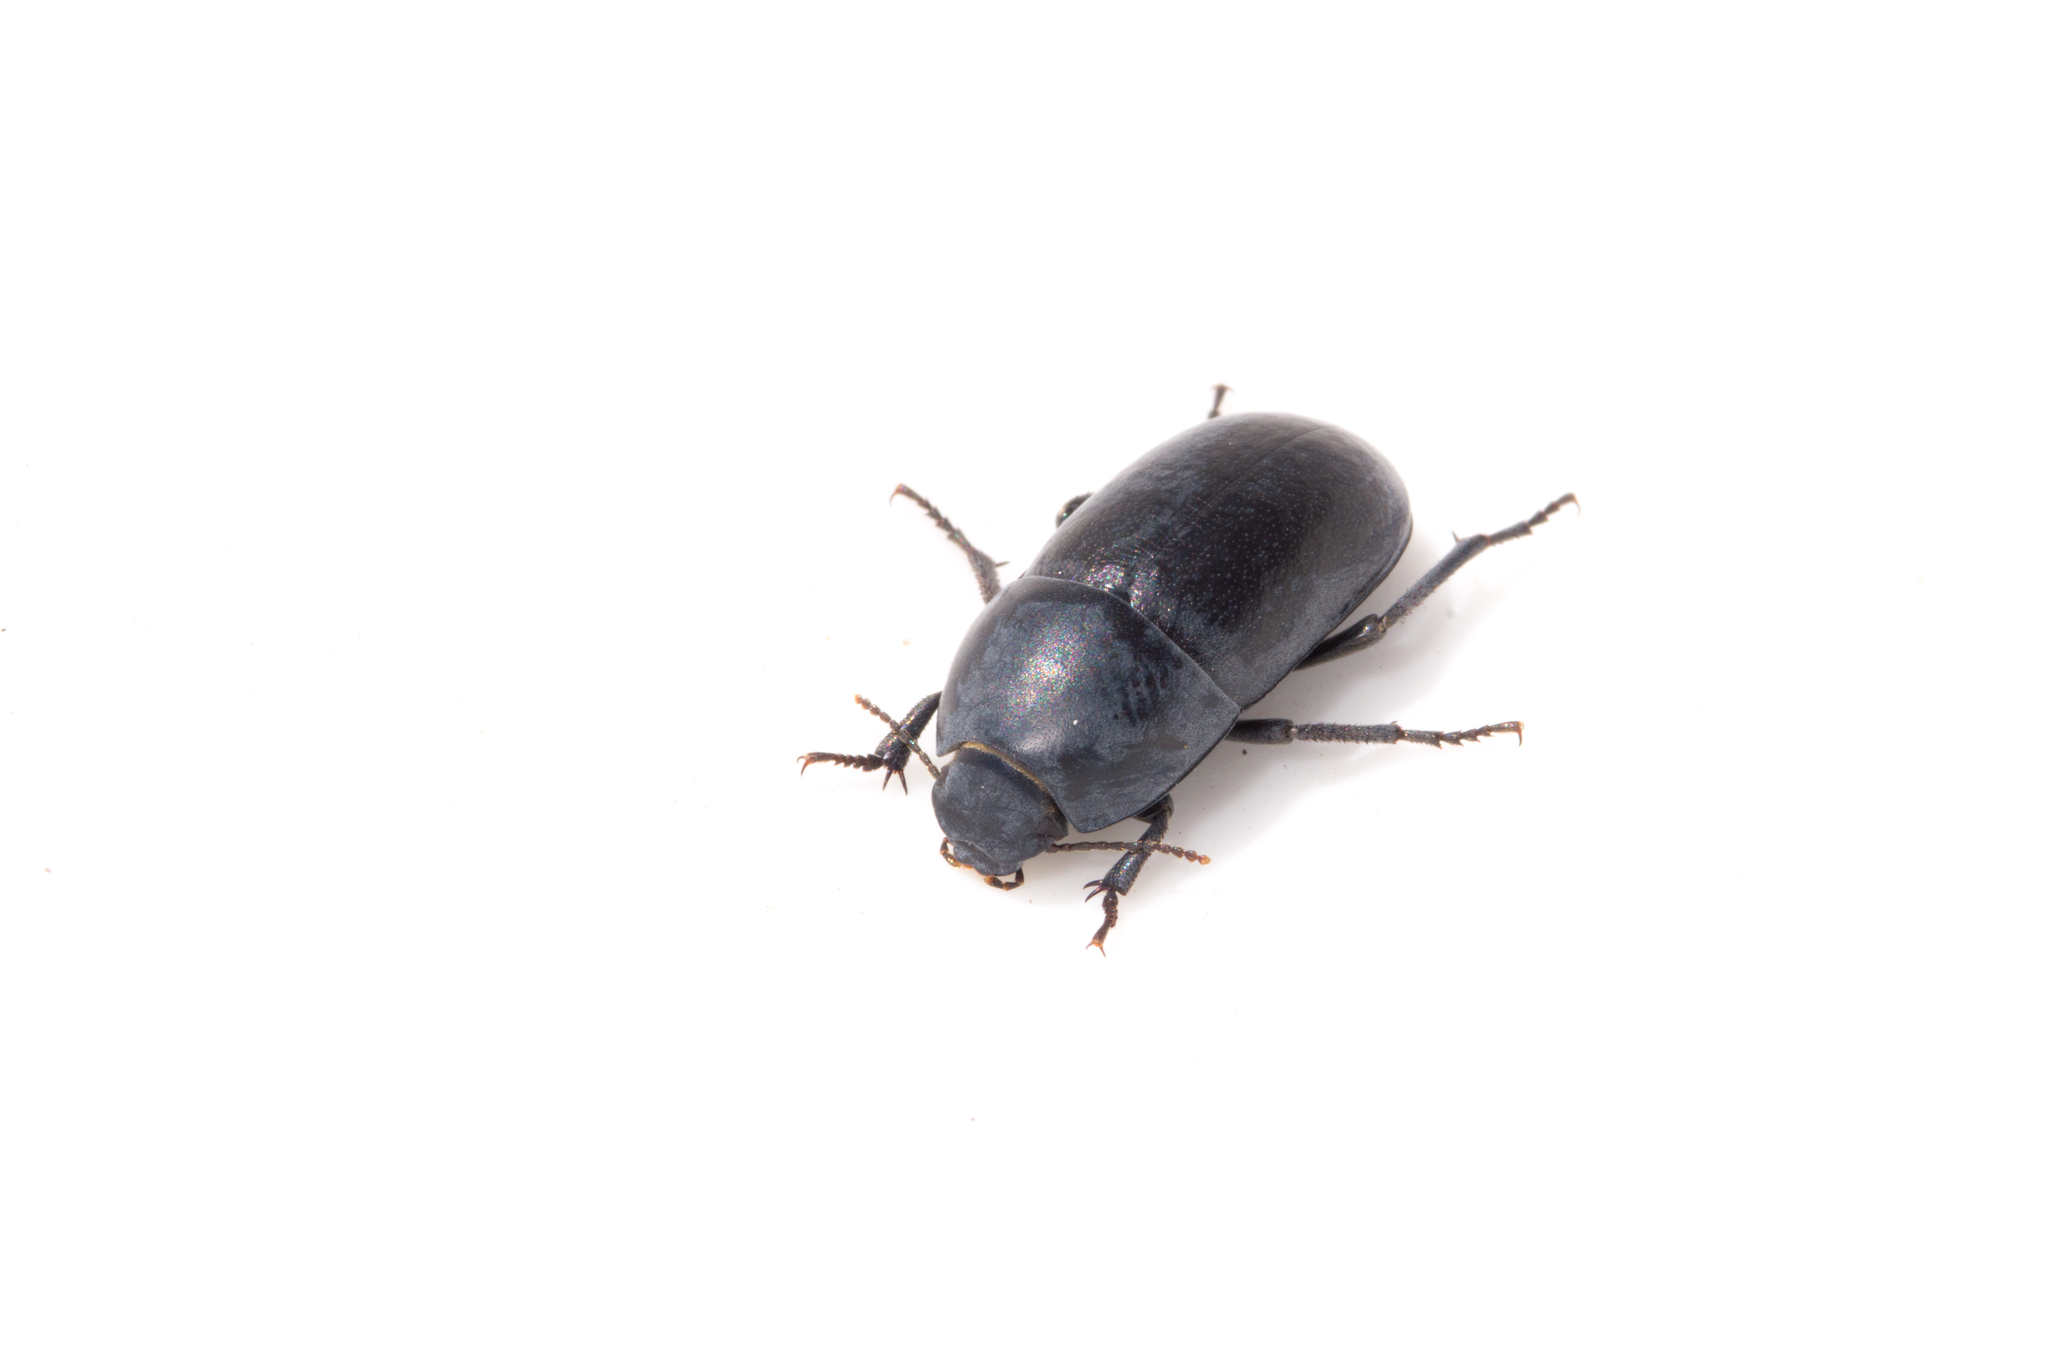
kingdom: Animalia
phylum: Arthropoda
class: Insecta
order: Coleoptera
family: Tenebrionidae
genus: Coniontis
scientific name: Coniontis
